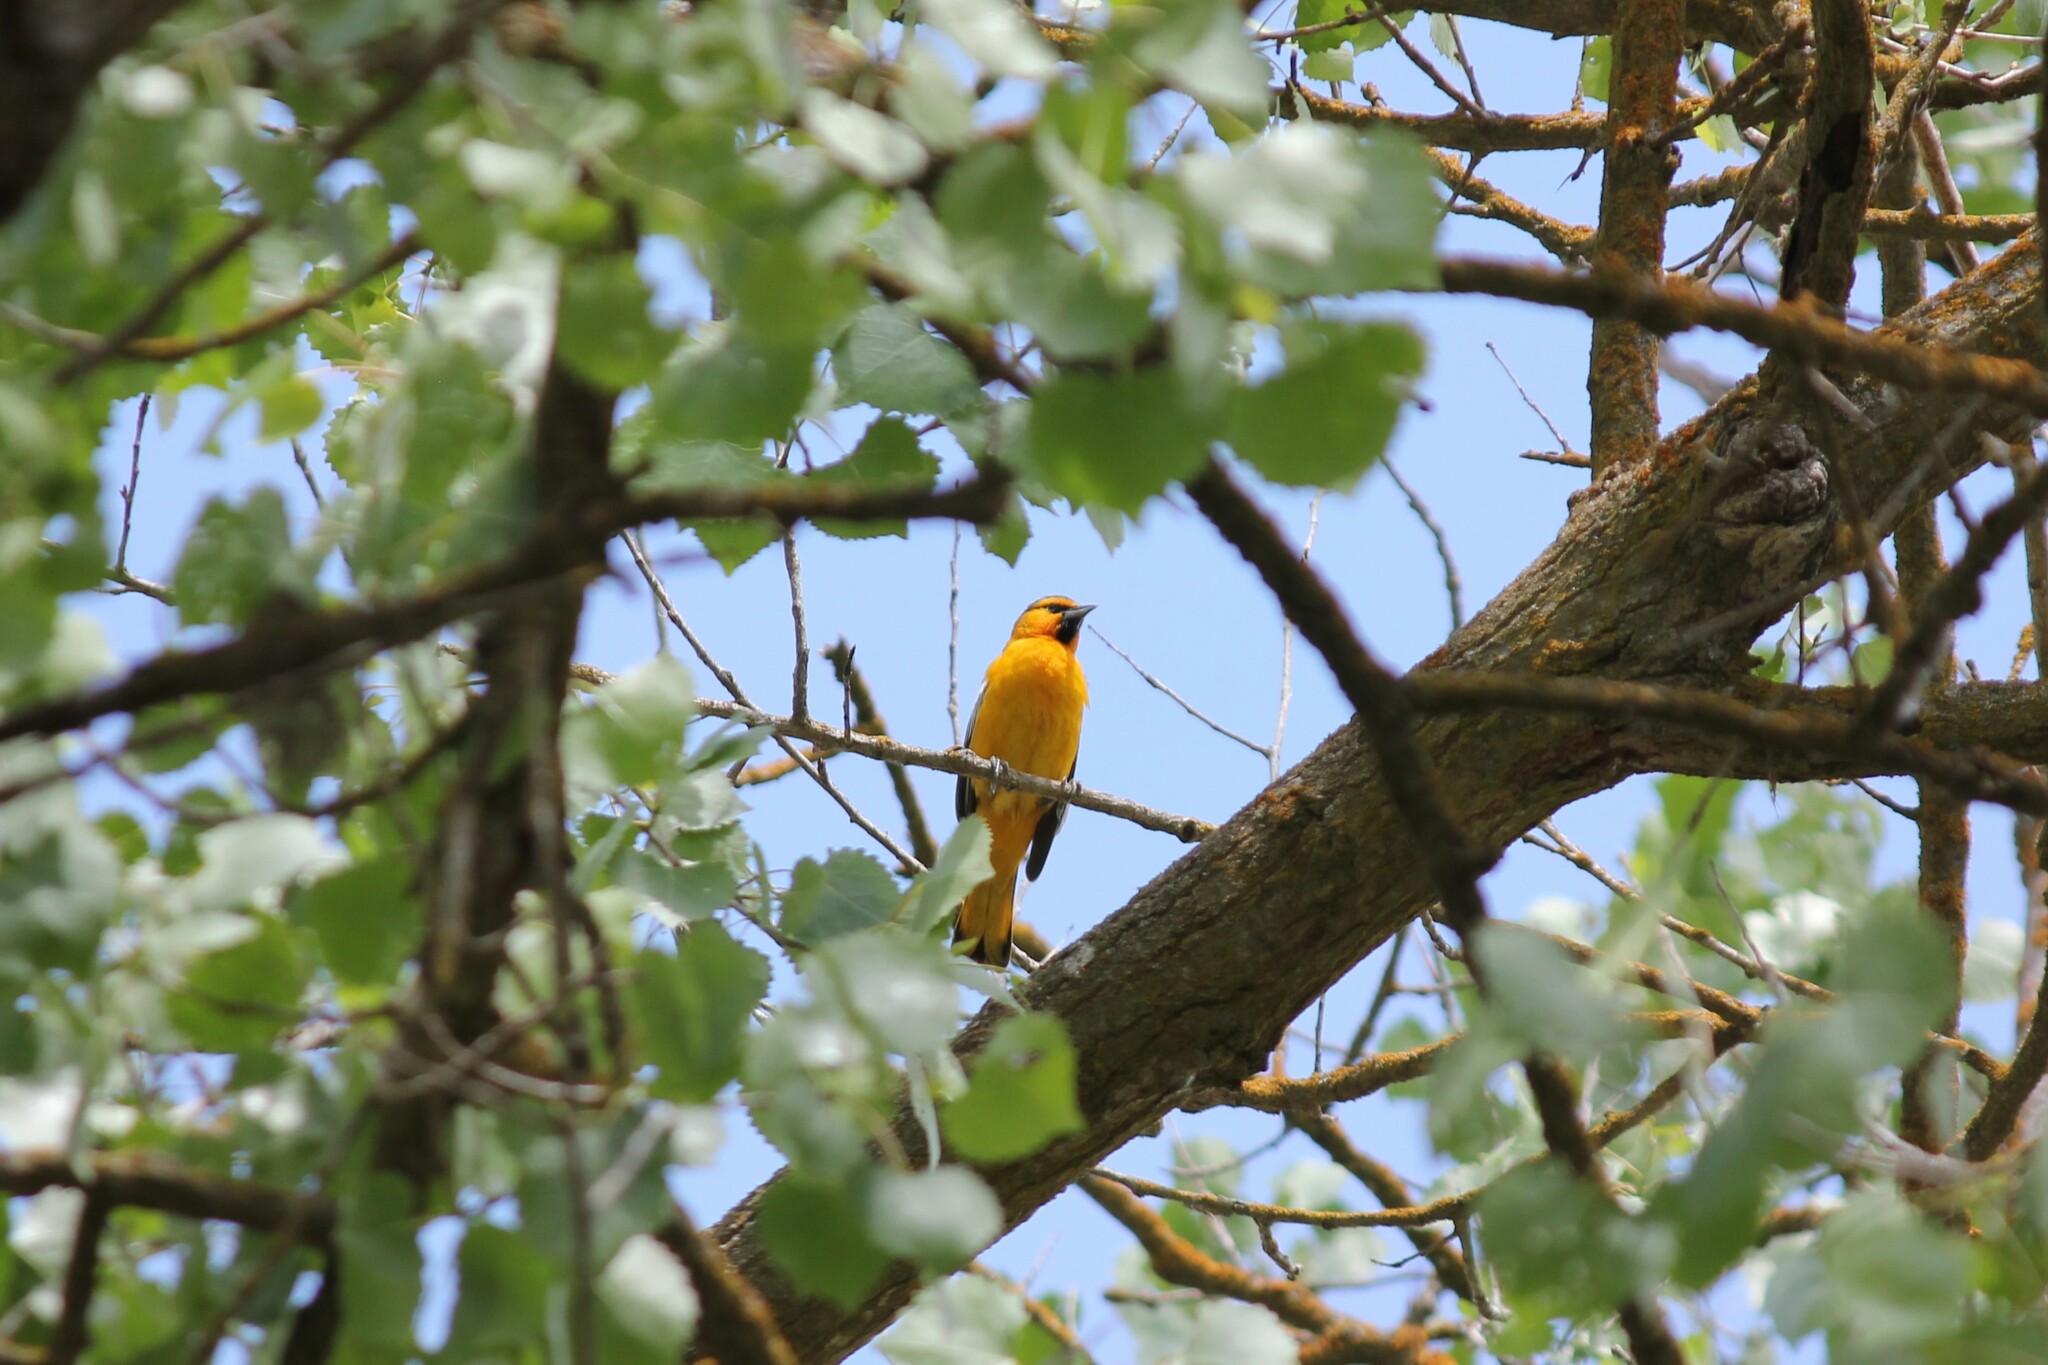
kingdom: Animalia
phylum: Chordata
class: Aves
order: Passeriformes
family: Icteridae
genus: Icterus
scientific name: Icterus bullockii
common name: Bullock's oriole
